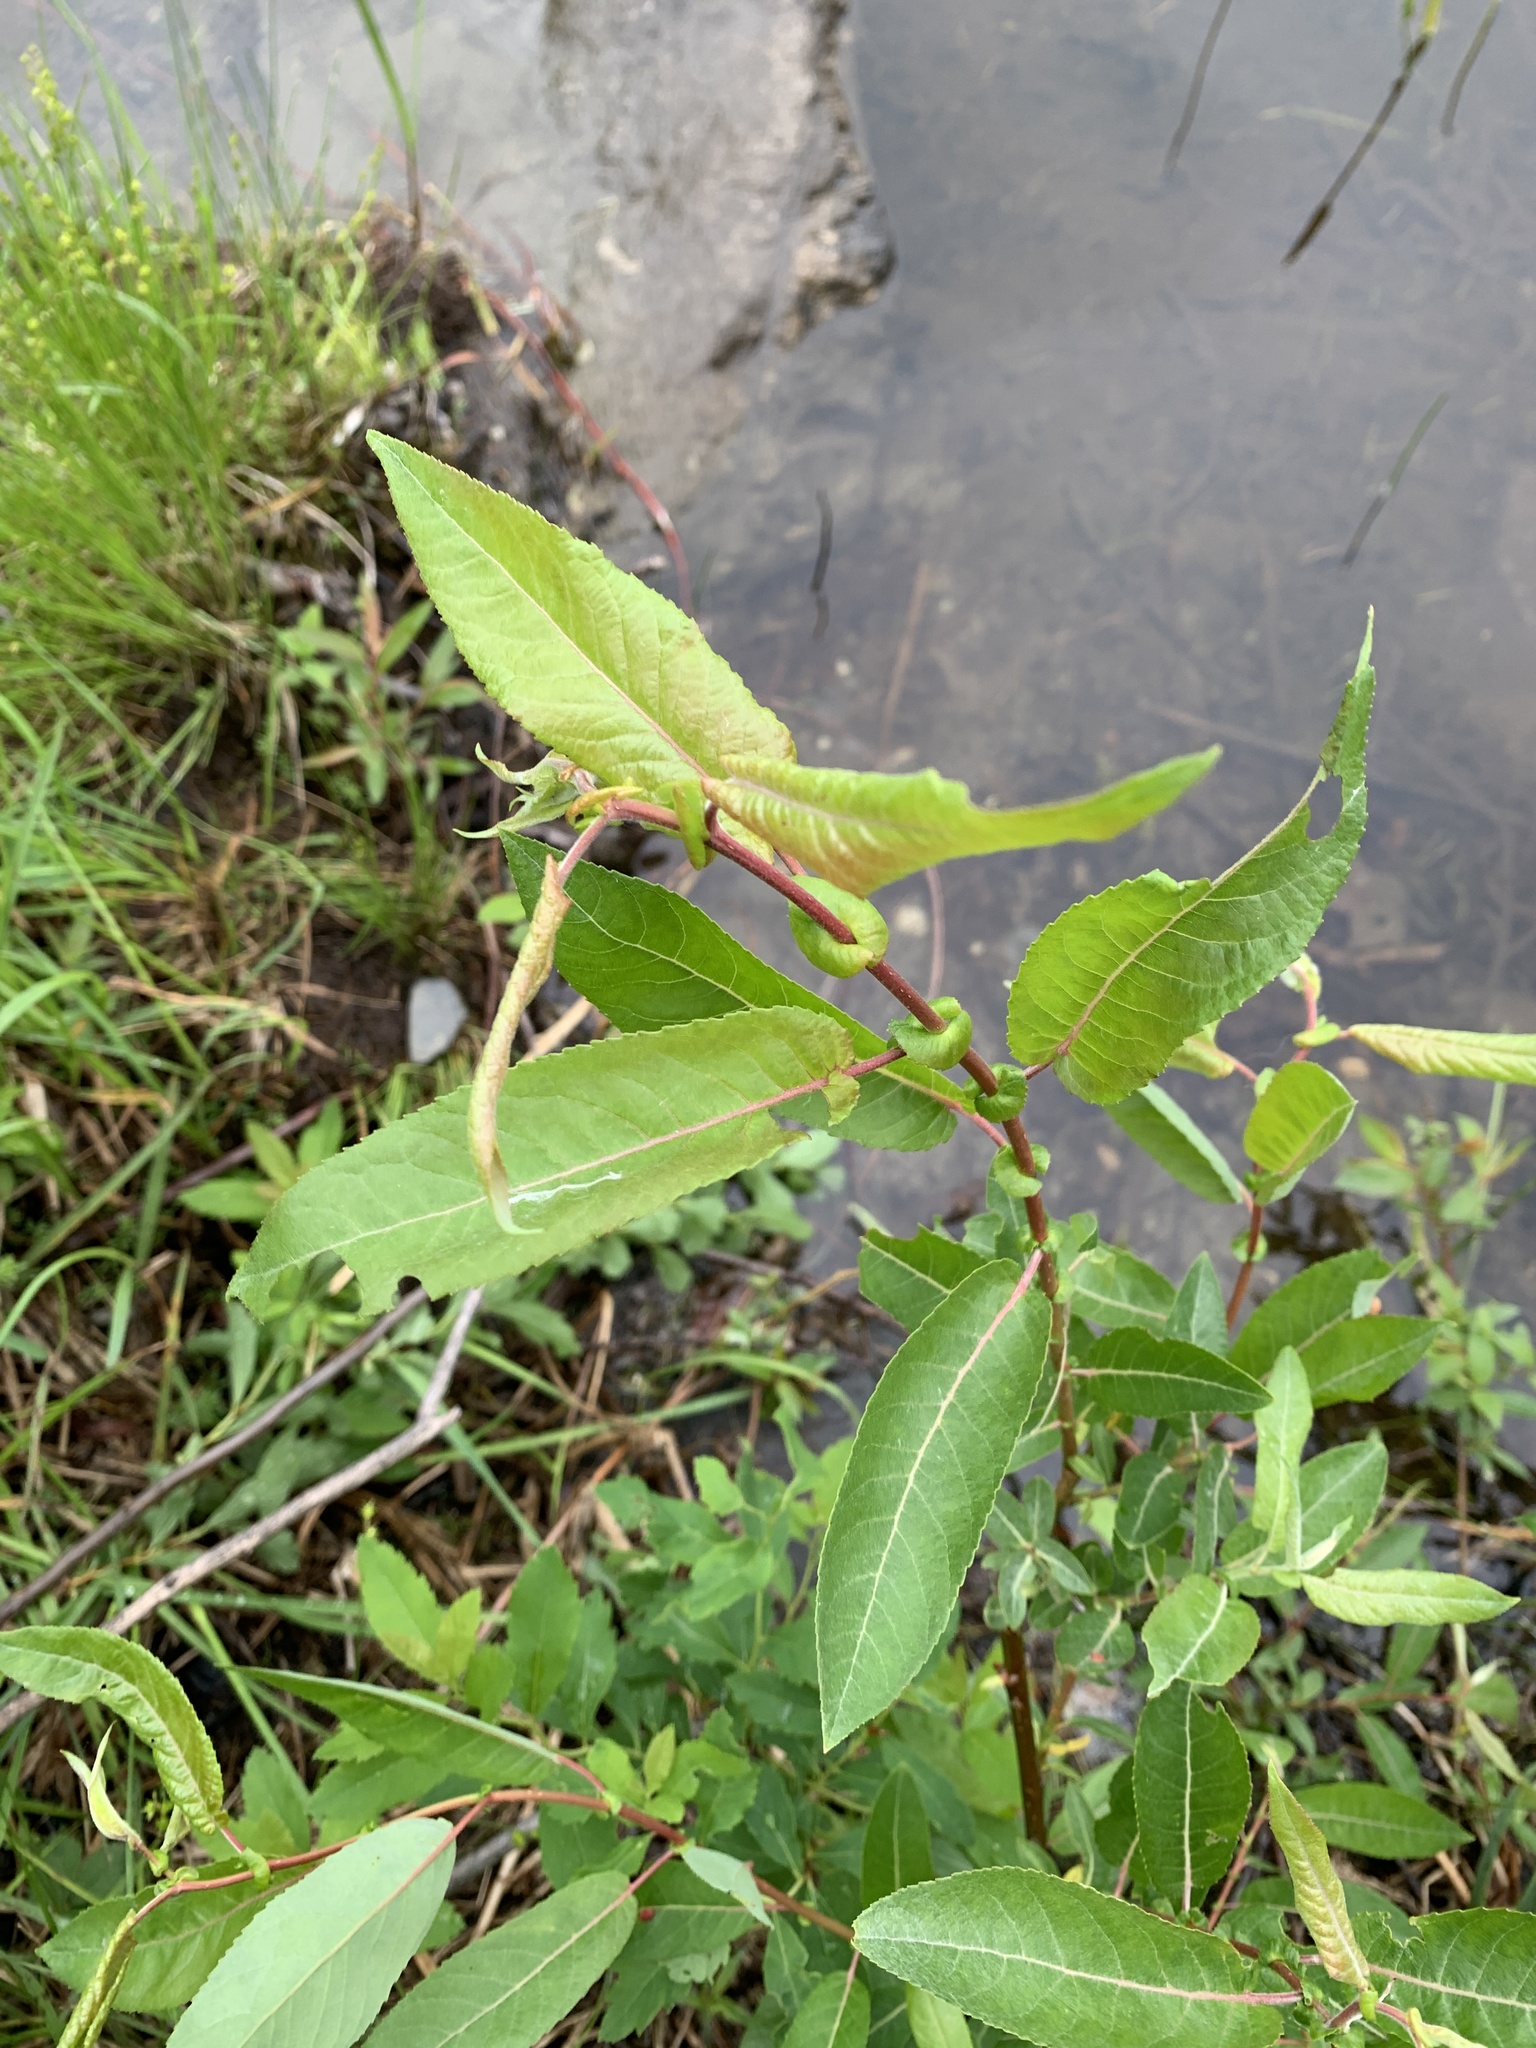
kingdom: Plantae
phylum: Tracheophyta
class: Magnoliopsida
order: Malpighiales
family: Salicaceae
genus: Salix
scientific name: Salix eriocephala
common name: Heart-leaved willow
